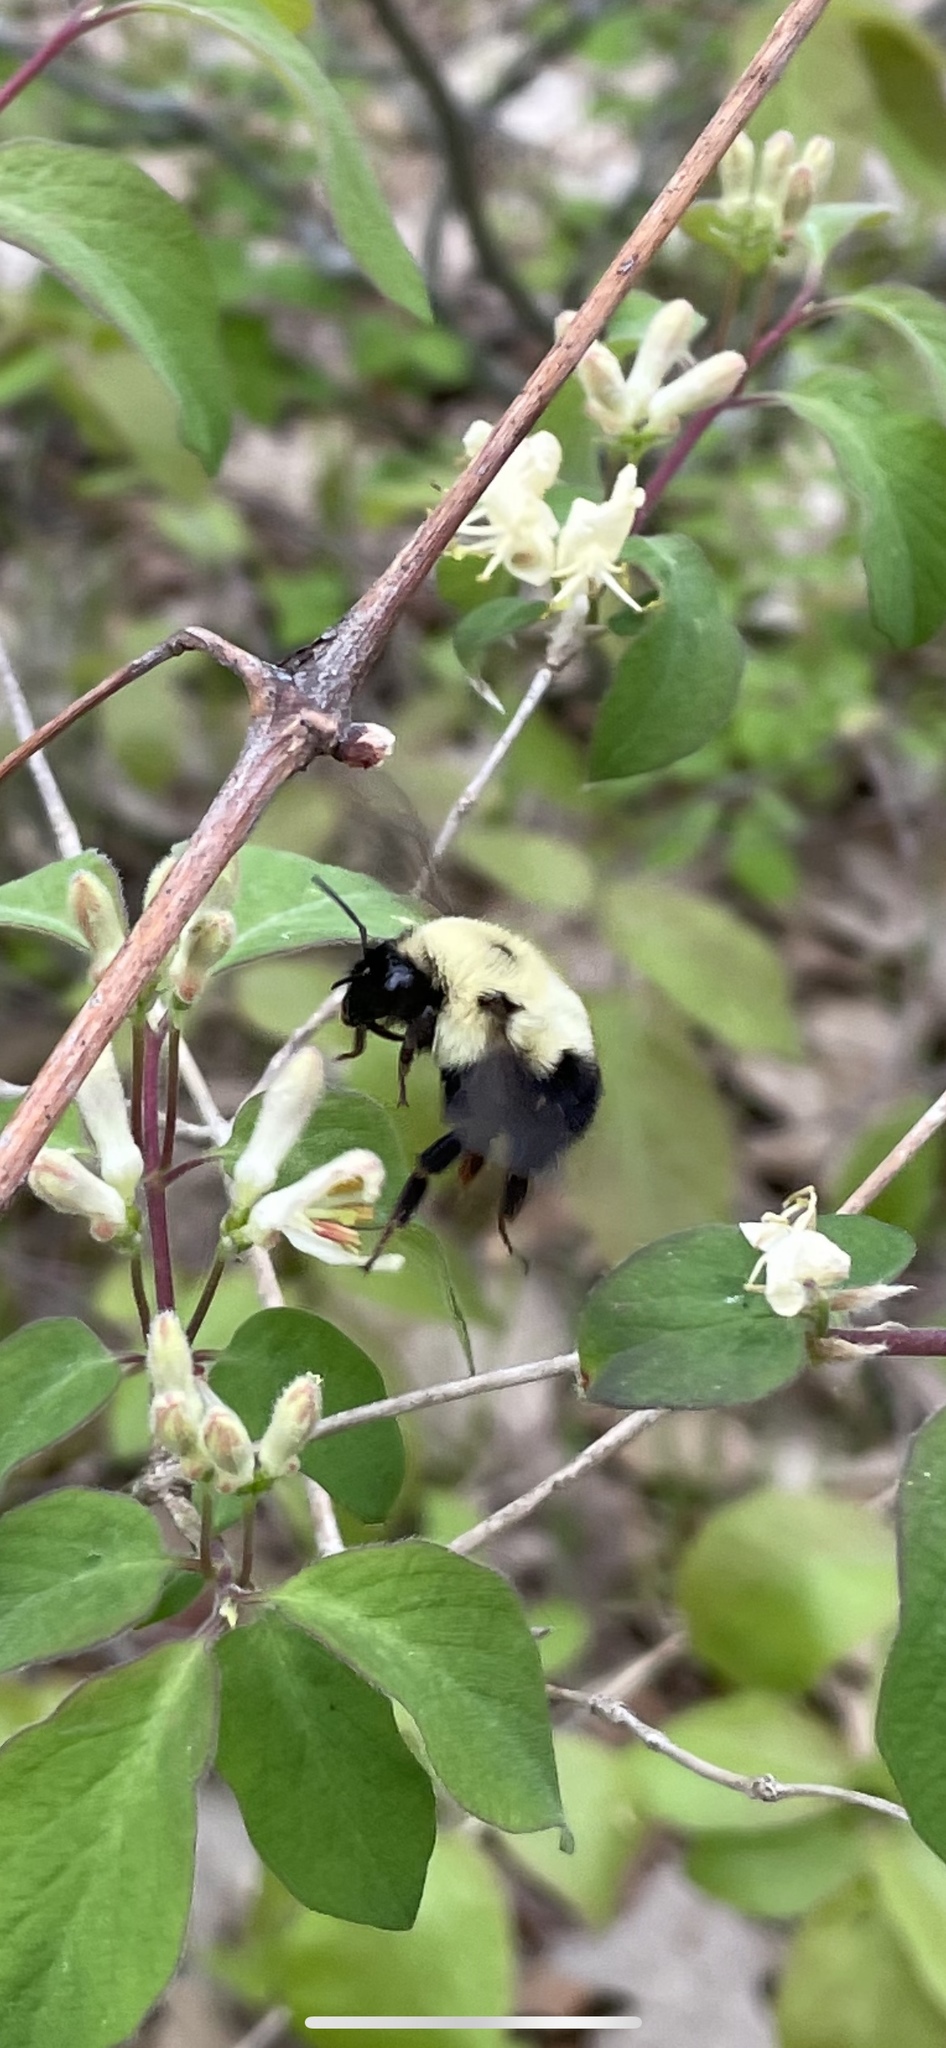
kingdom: Animalia
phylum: Arthropoda
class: Insecta
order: Hymenoptera
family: Apidae
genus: Bombus
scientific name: Bombus bimaculatus
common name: Two-spotted bumble bee
